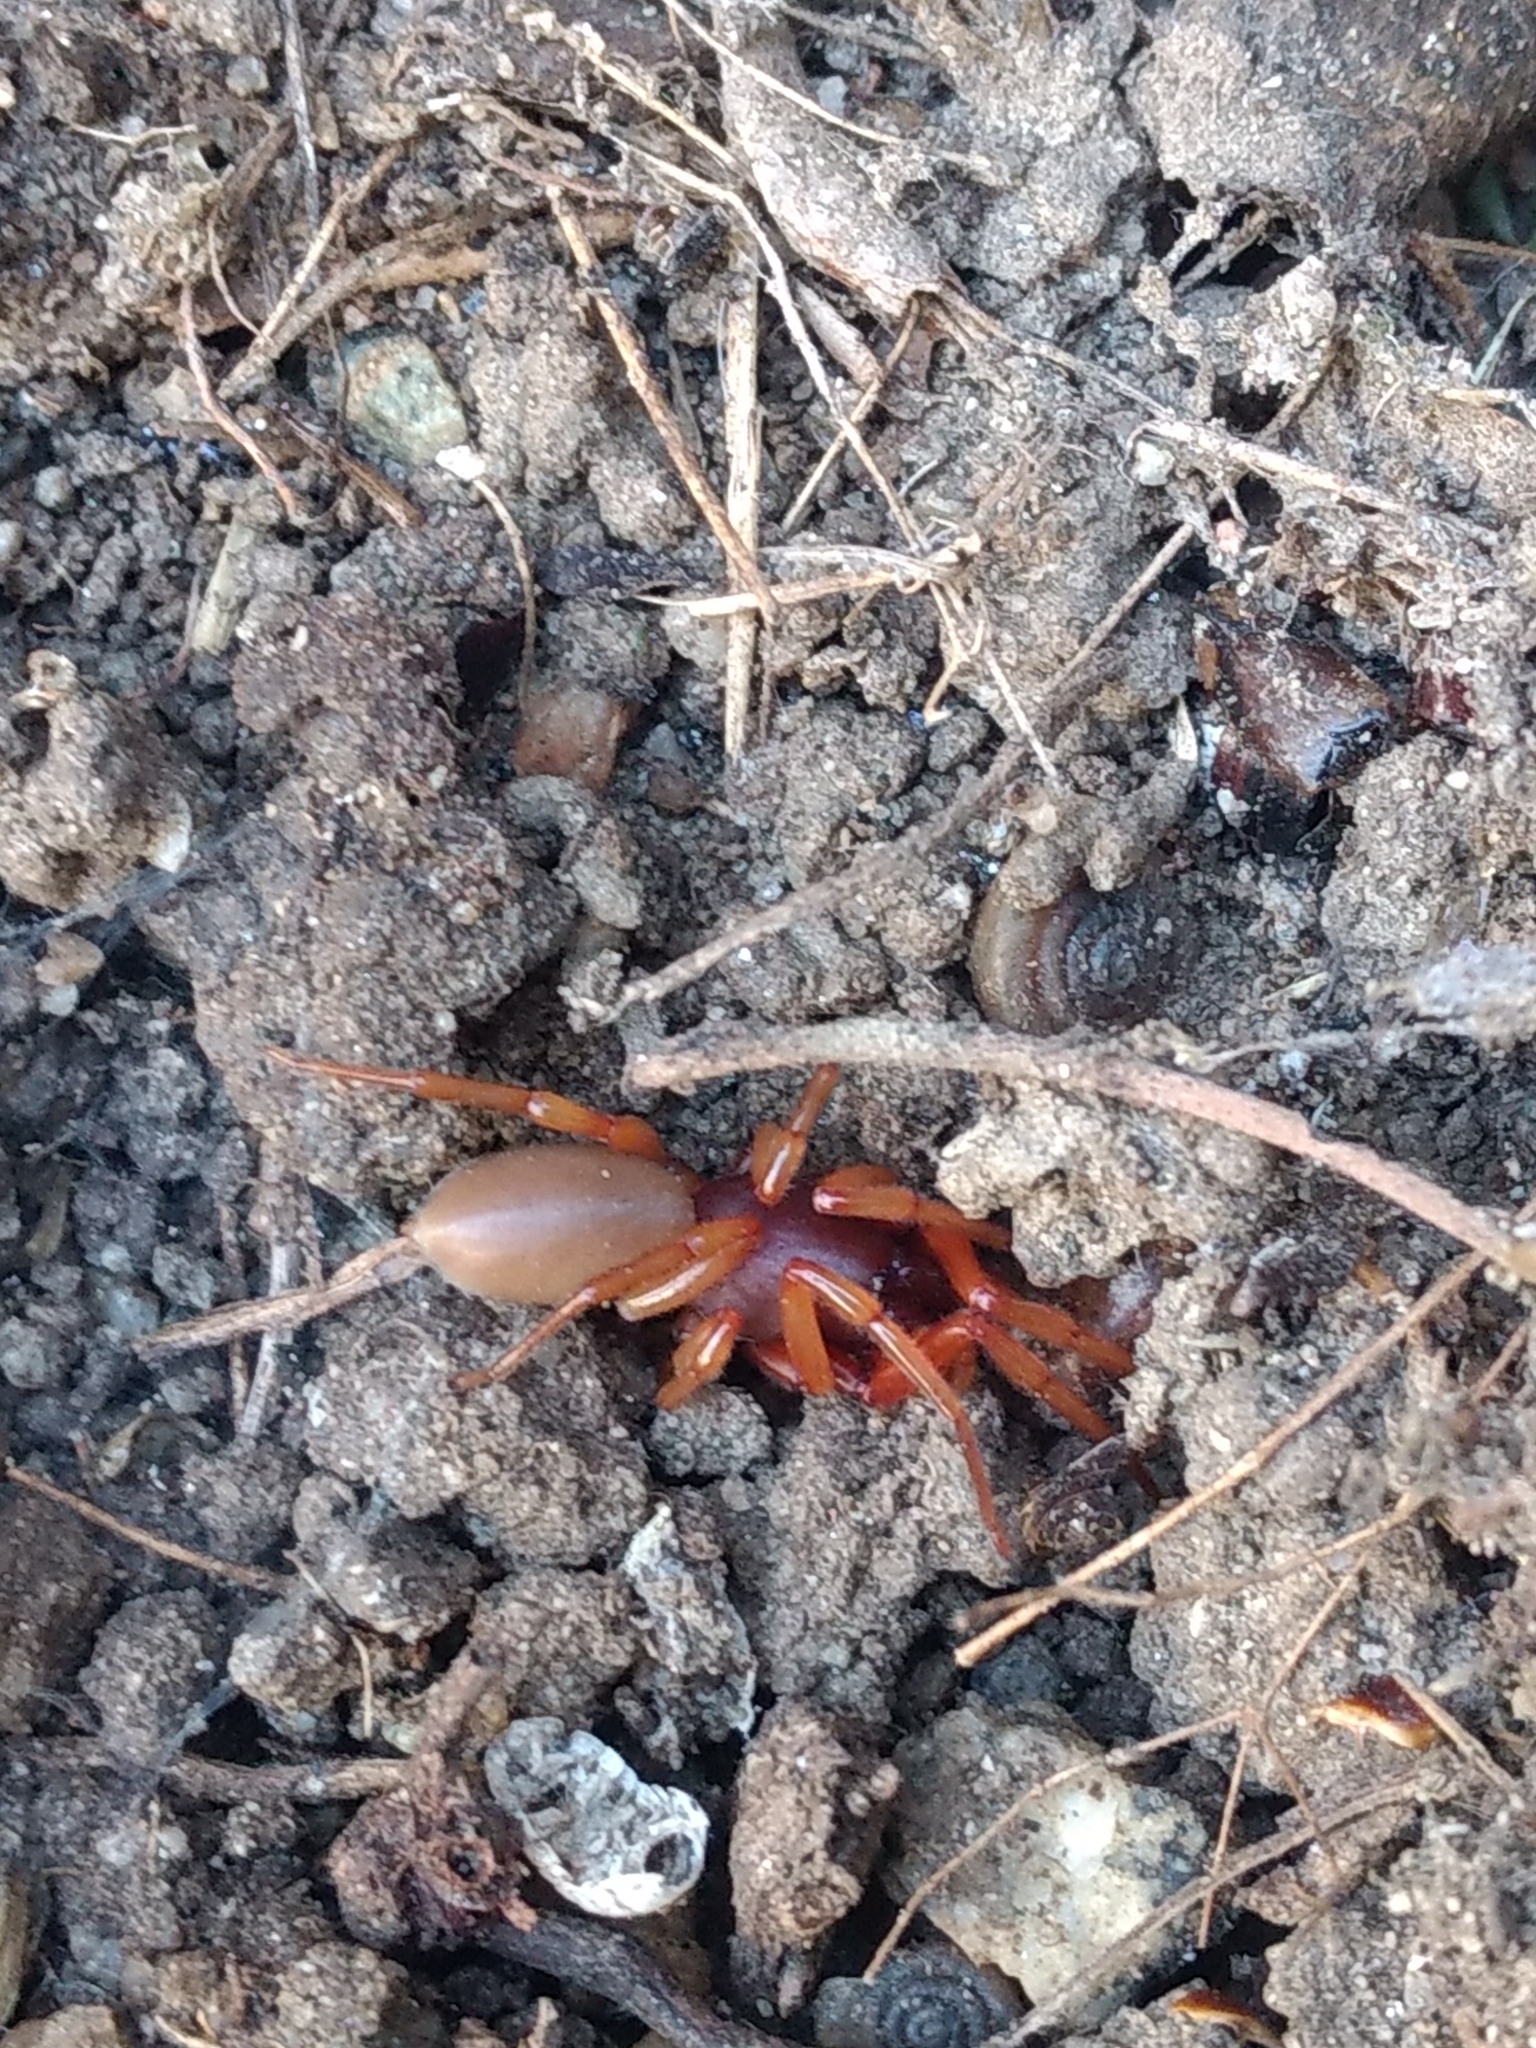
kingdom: Animalia
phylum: Arthropoda
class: Arachnida
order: Araneae
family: Dysderidae
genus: Dysdera
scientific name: Dysdera crocata
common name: Woodlouse spider
